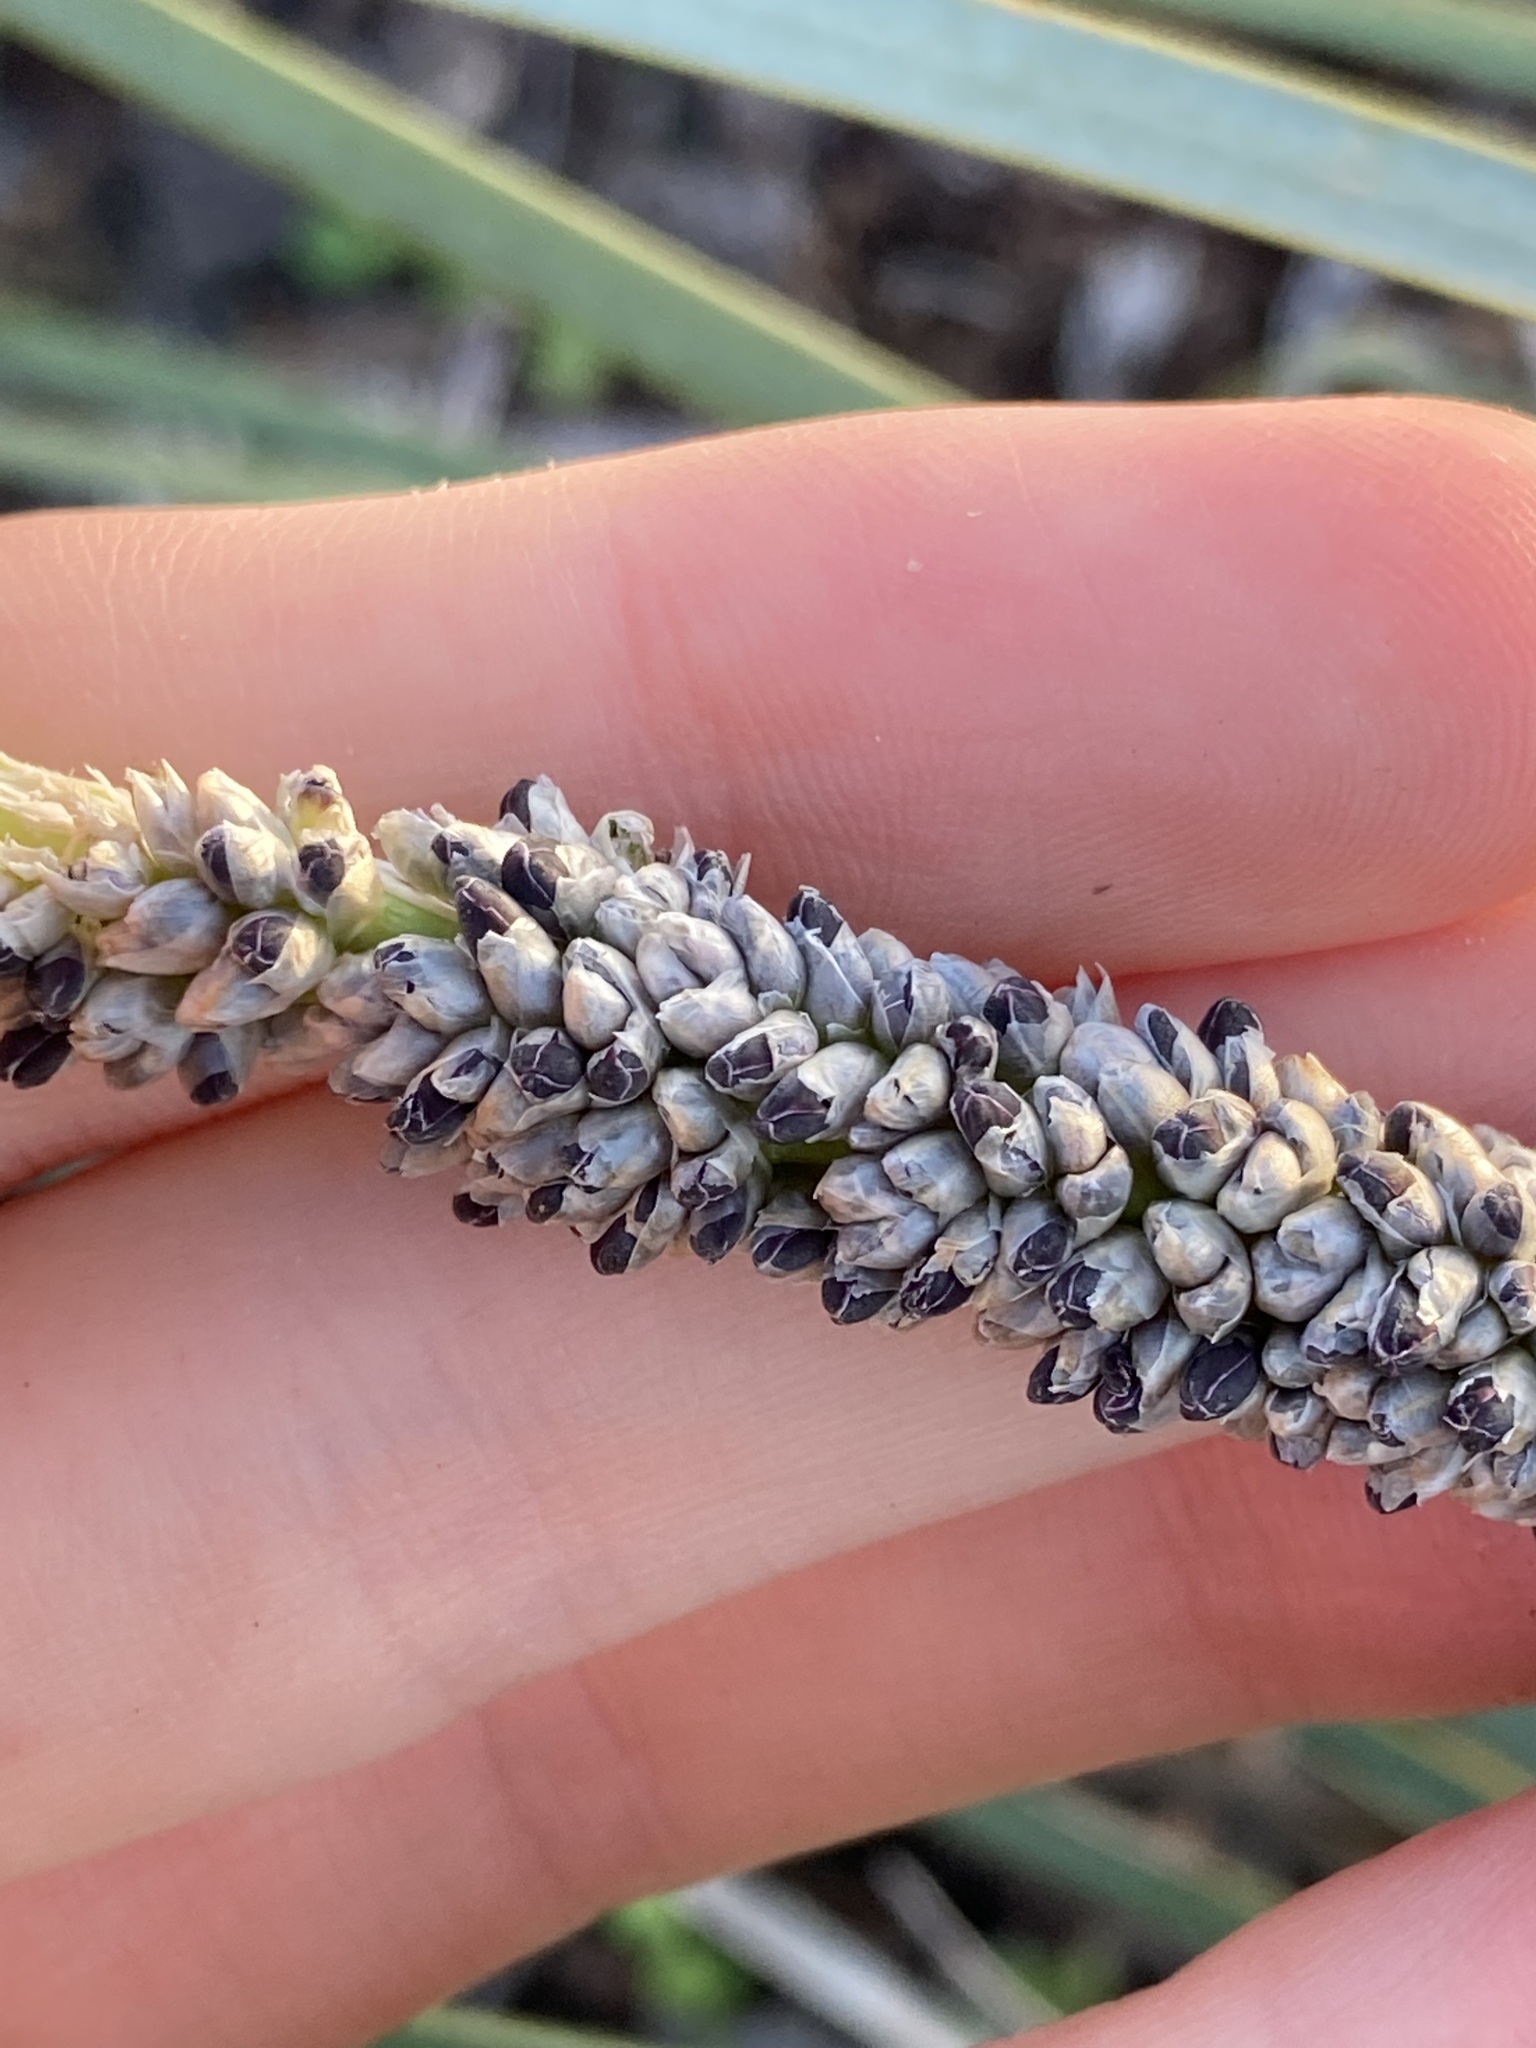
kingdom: Plantae
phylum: Tracheophyta
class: Liliopsida
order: Asparagales
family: Asparagaceae
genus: Lomandra
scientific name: Lomandra hastilis
